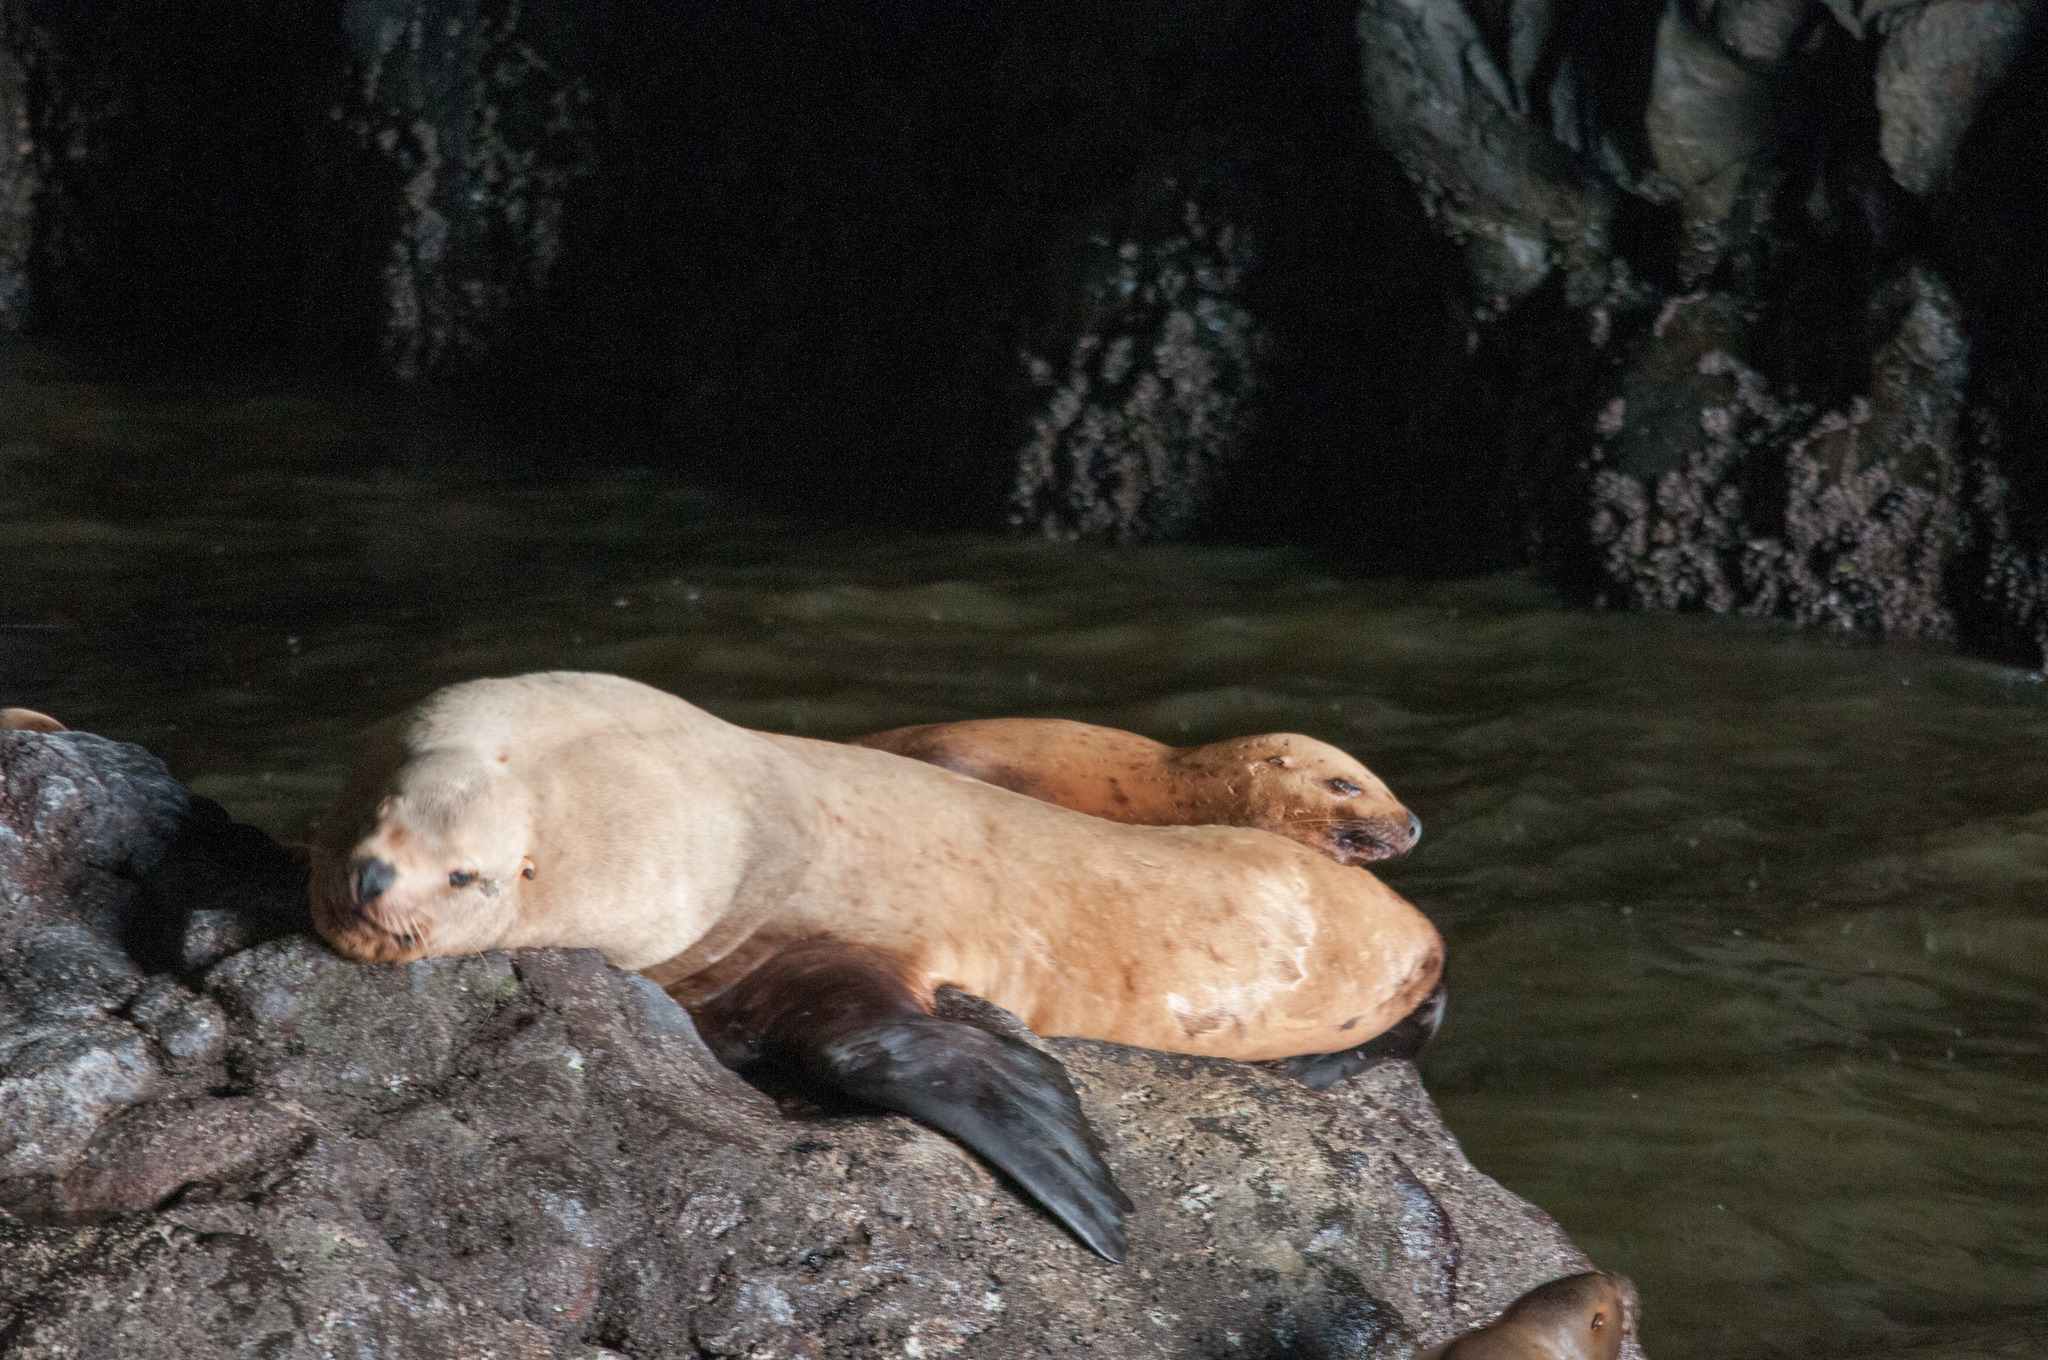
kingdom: Animalia
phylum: Chordata
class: Mammalia
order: Carnivora
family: Otariidae
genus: Eumetopias
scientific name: Eumetopias jubatus
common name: Steller sea lion
